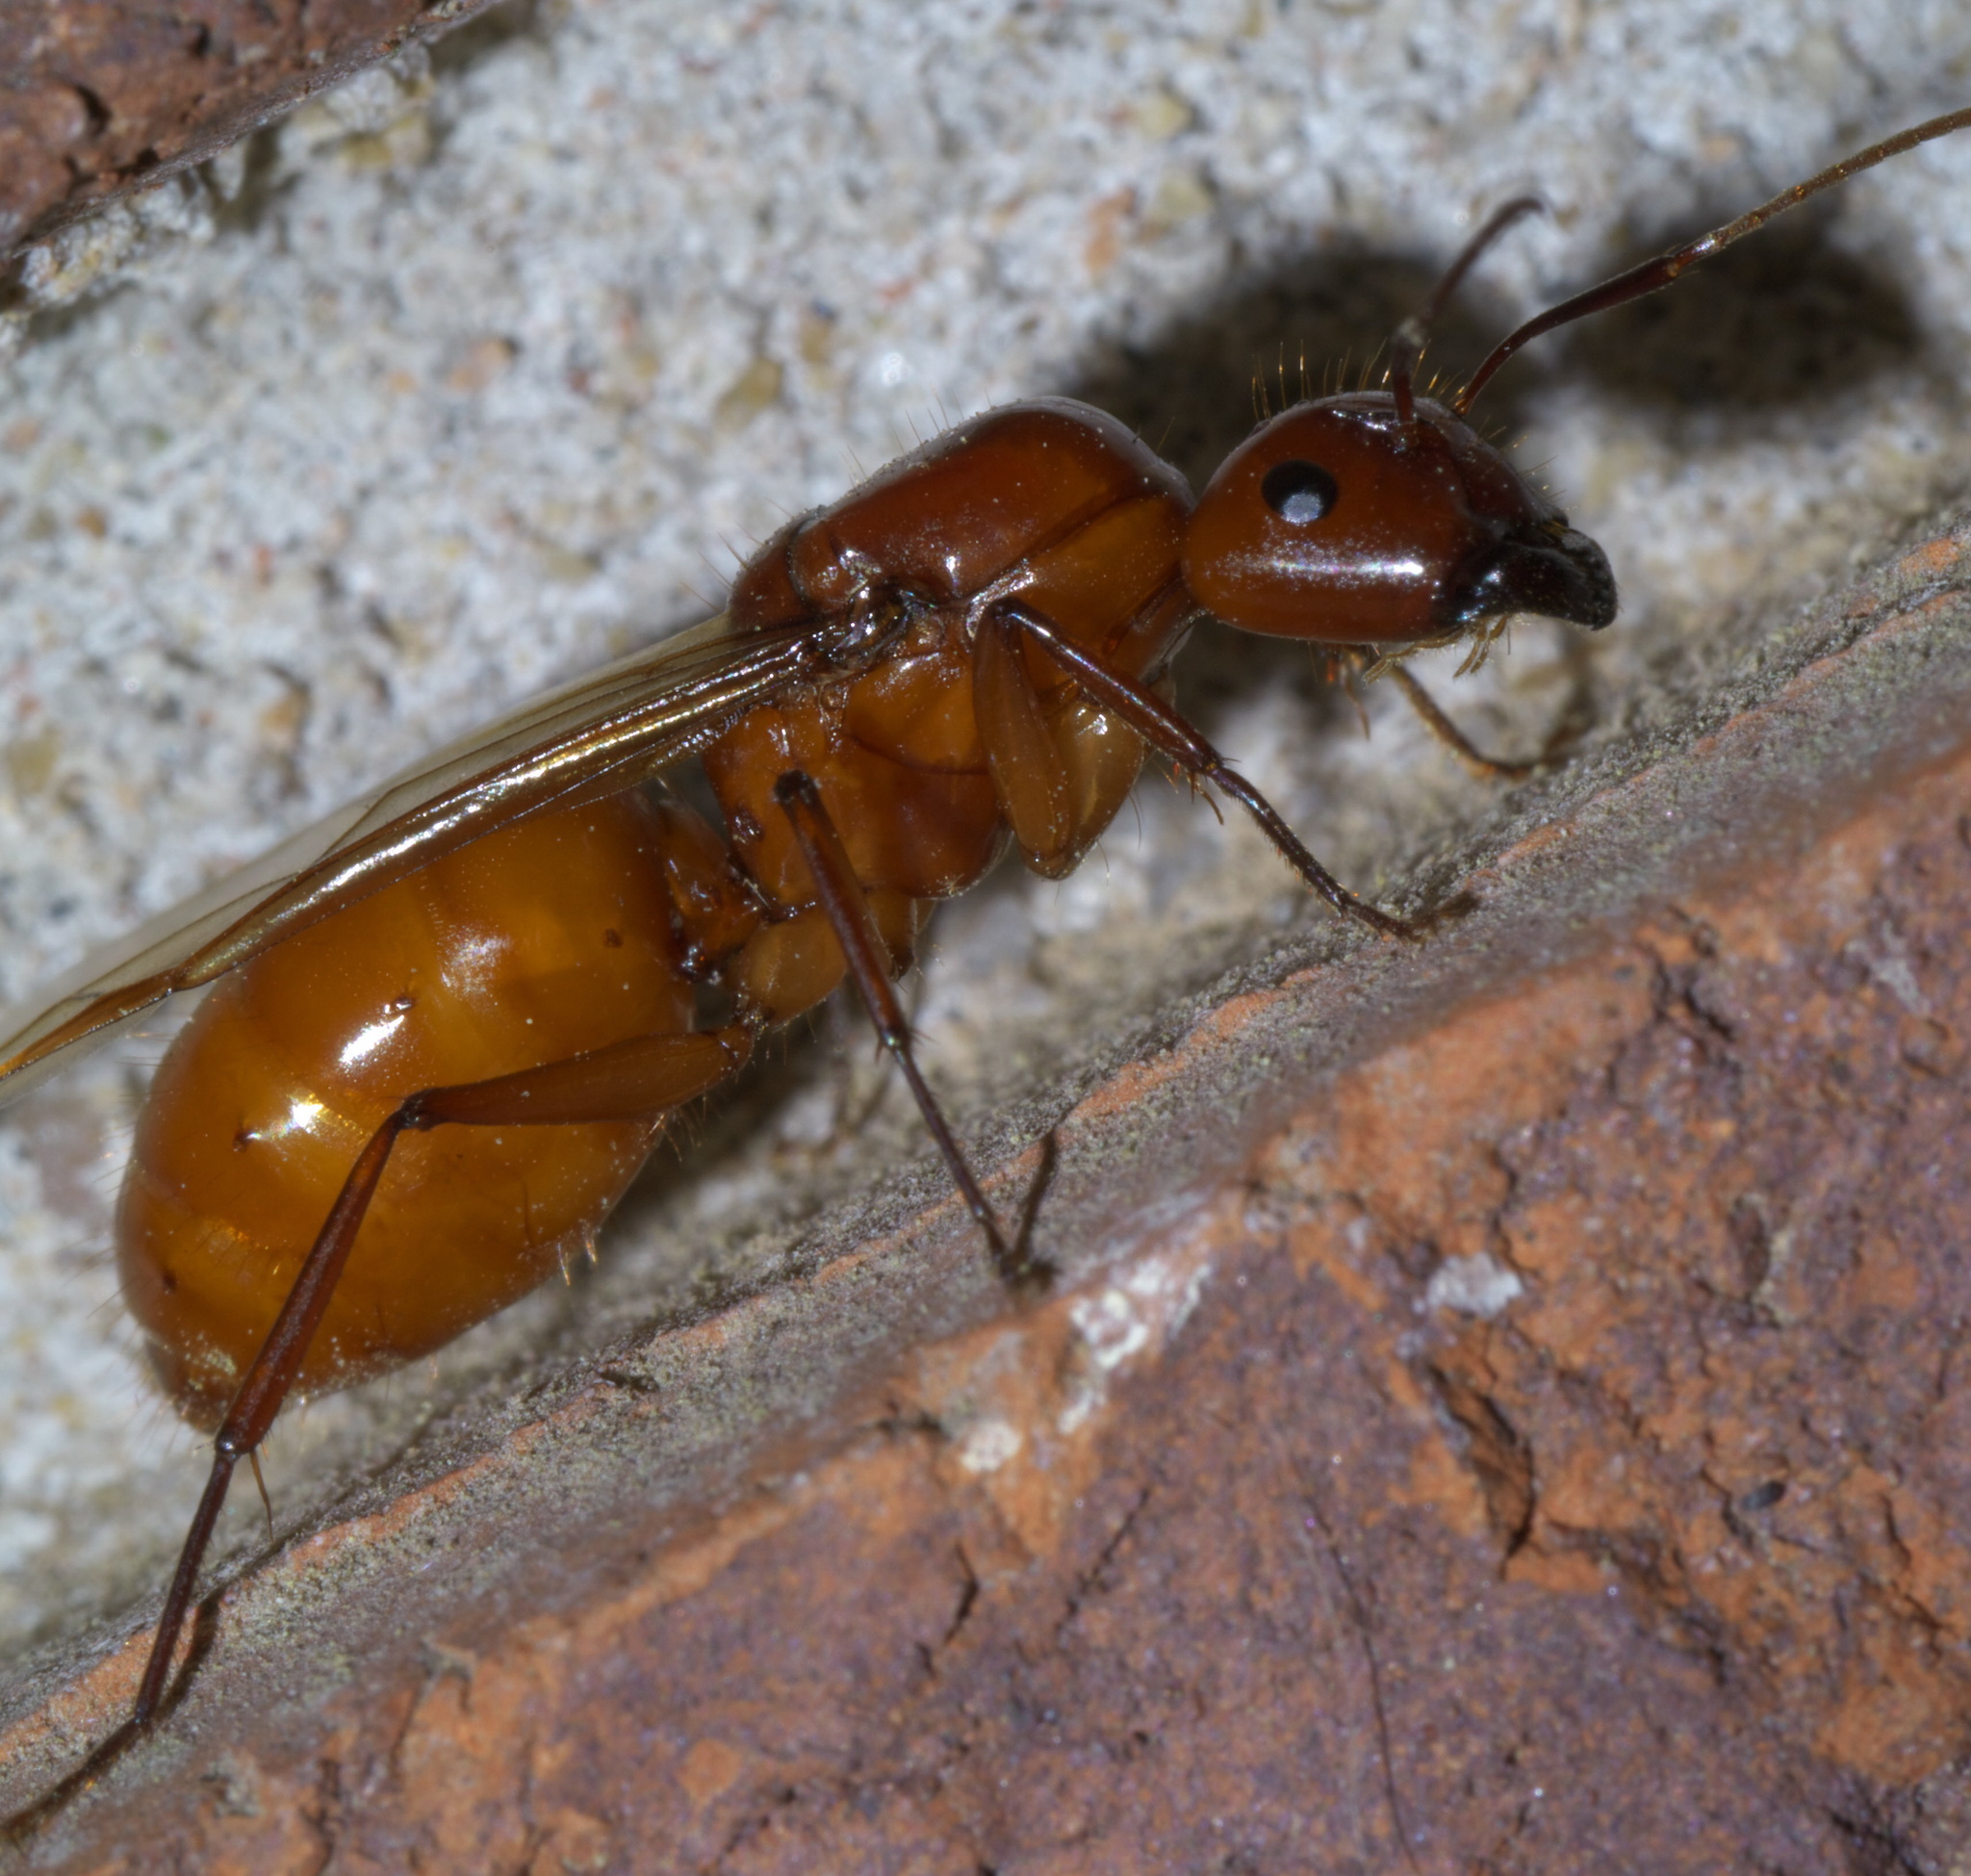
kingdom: Animalia
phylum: Arthropoda
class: Insecta
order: Hymenoptera
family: Formicidae
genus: Camponotus
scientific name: Camponotus castaneus
